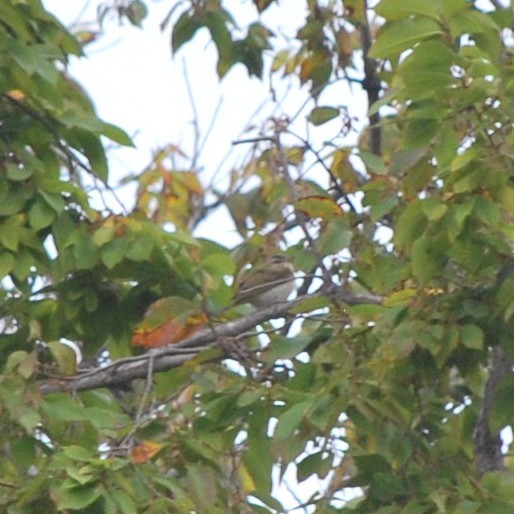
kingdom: Animalia
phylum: Chordata
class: Aves
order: Passeriformes
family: Vireonidae
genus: Vireo
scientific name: Vireo olivaceus
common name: Red-eyed vireo
